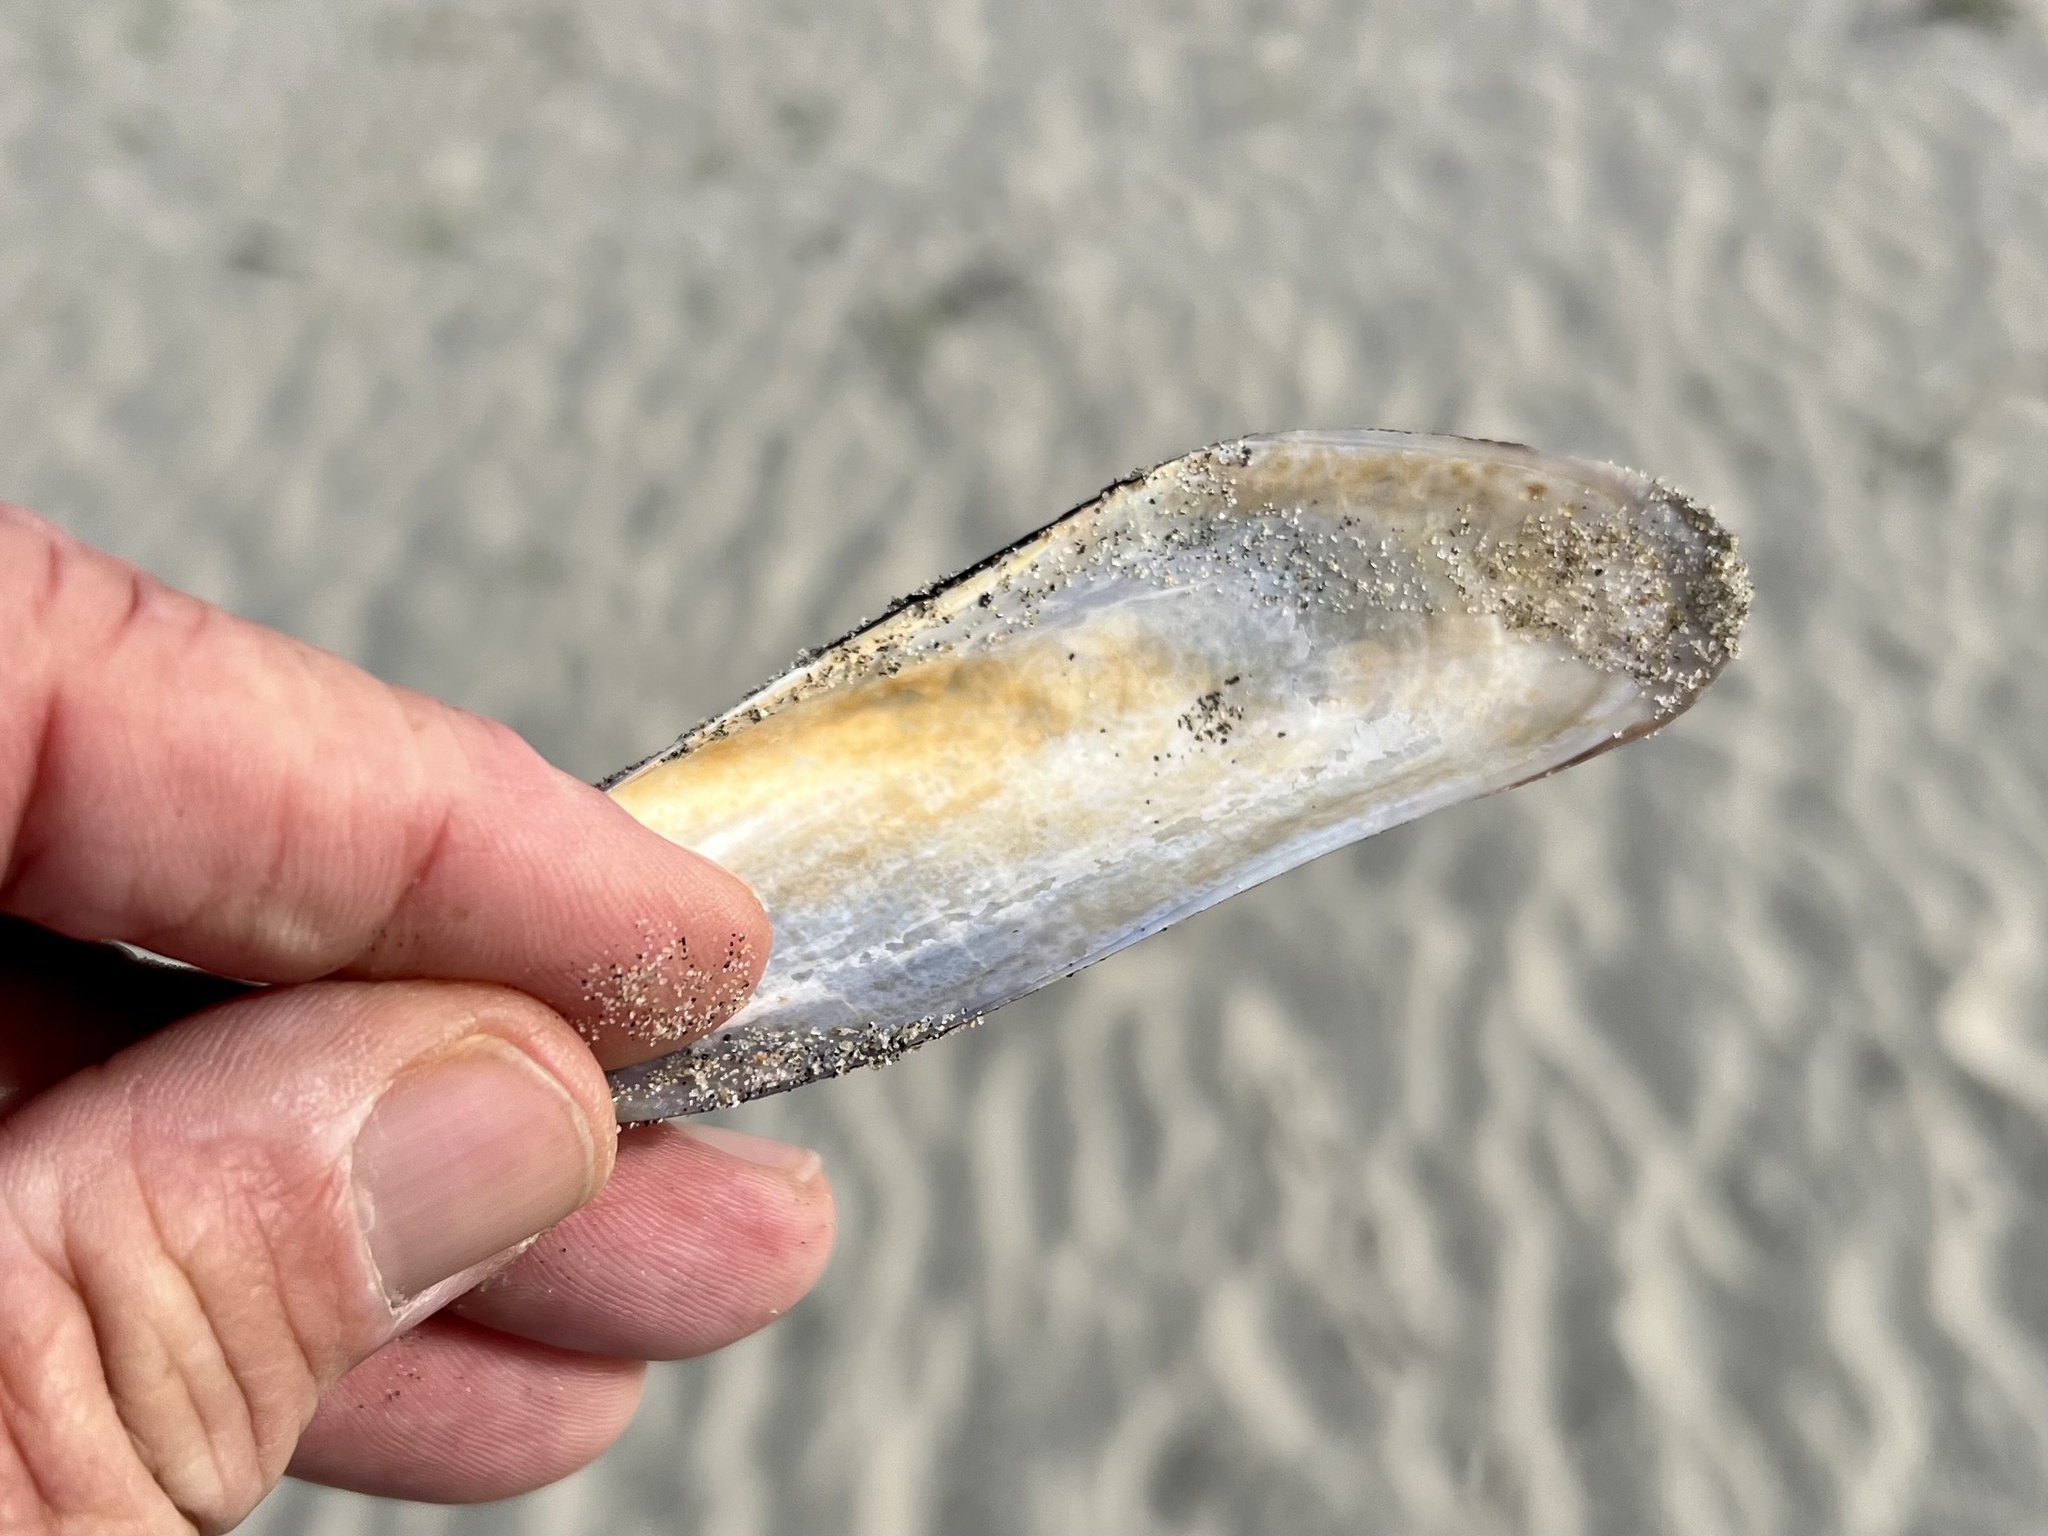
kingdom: Animalia
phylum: Mollusca
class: Bivalvia
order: Mytilida
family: Mytilidae
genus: Modiolus
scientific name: Modiolus rectus
